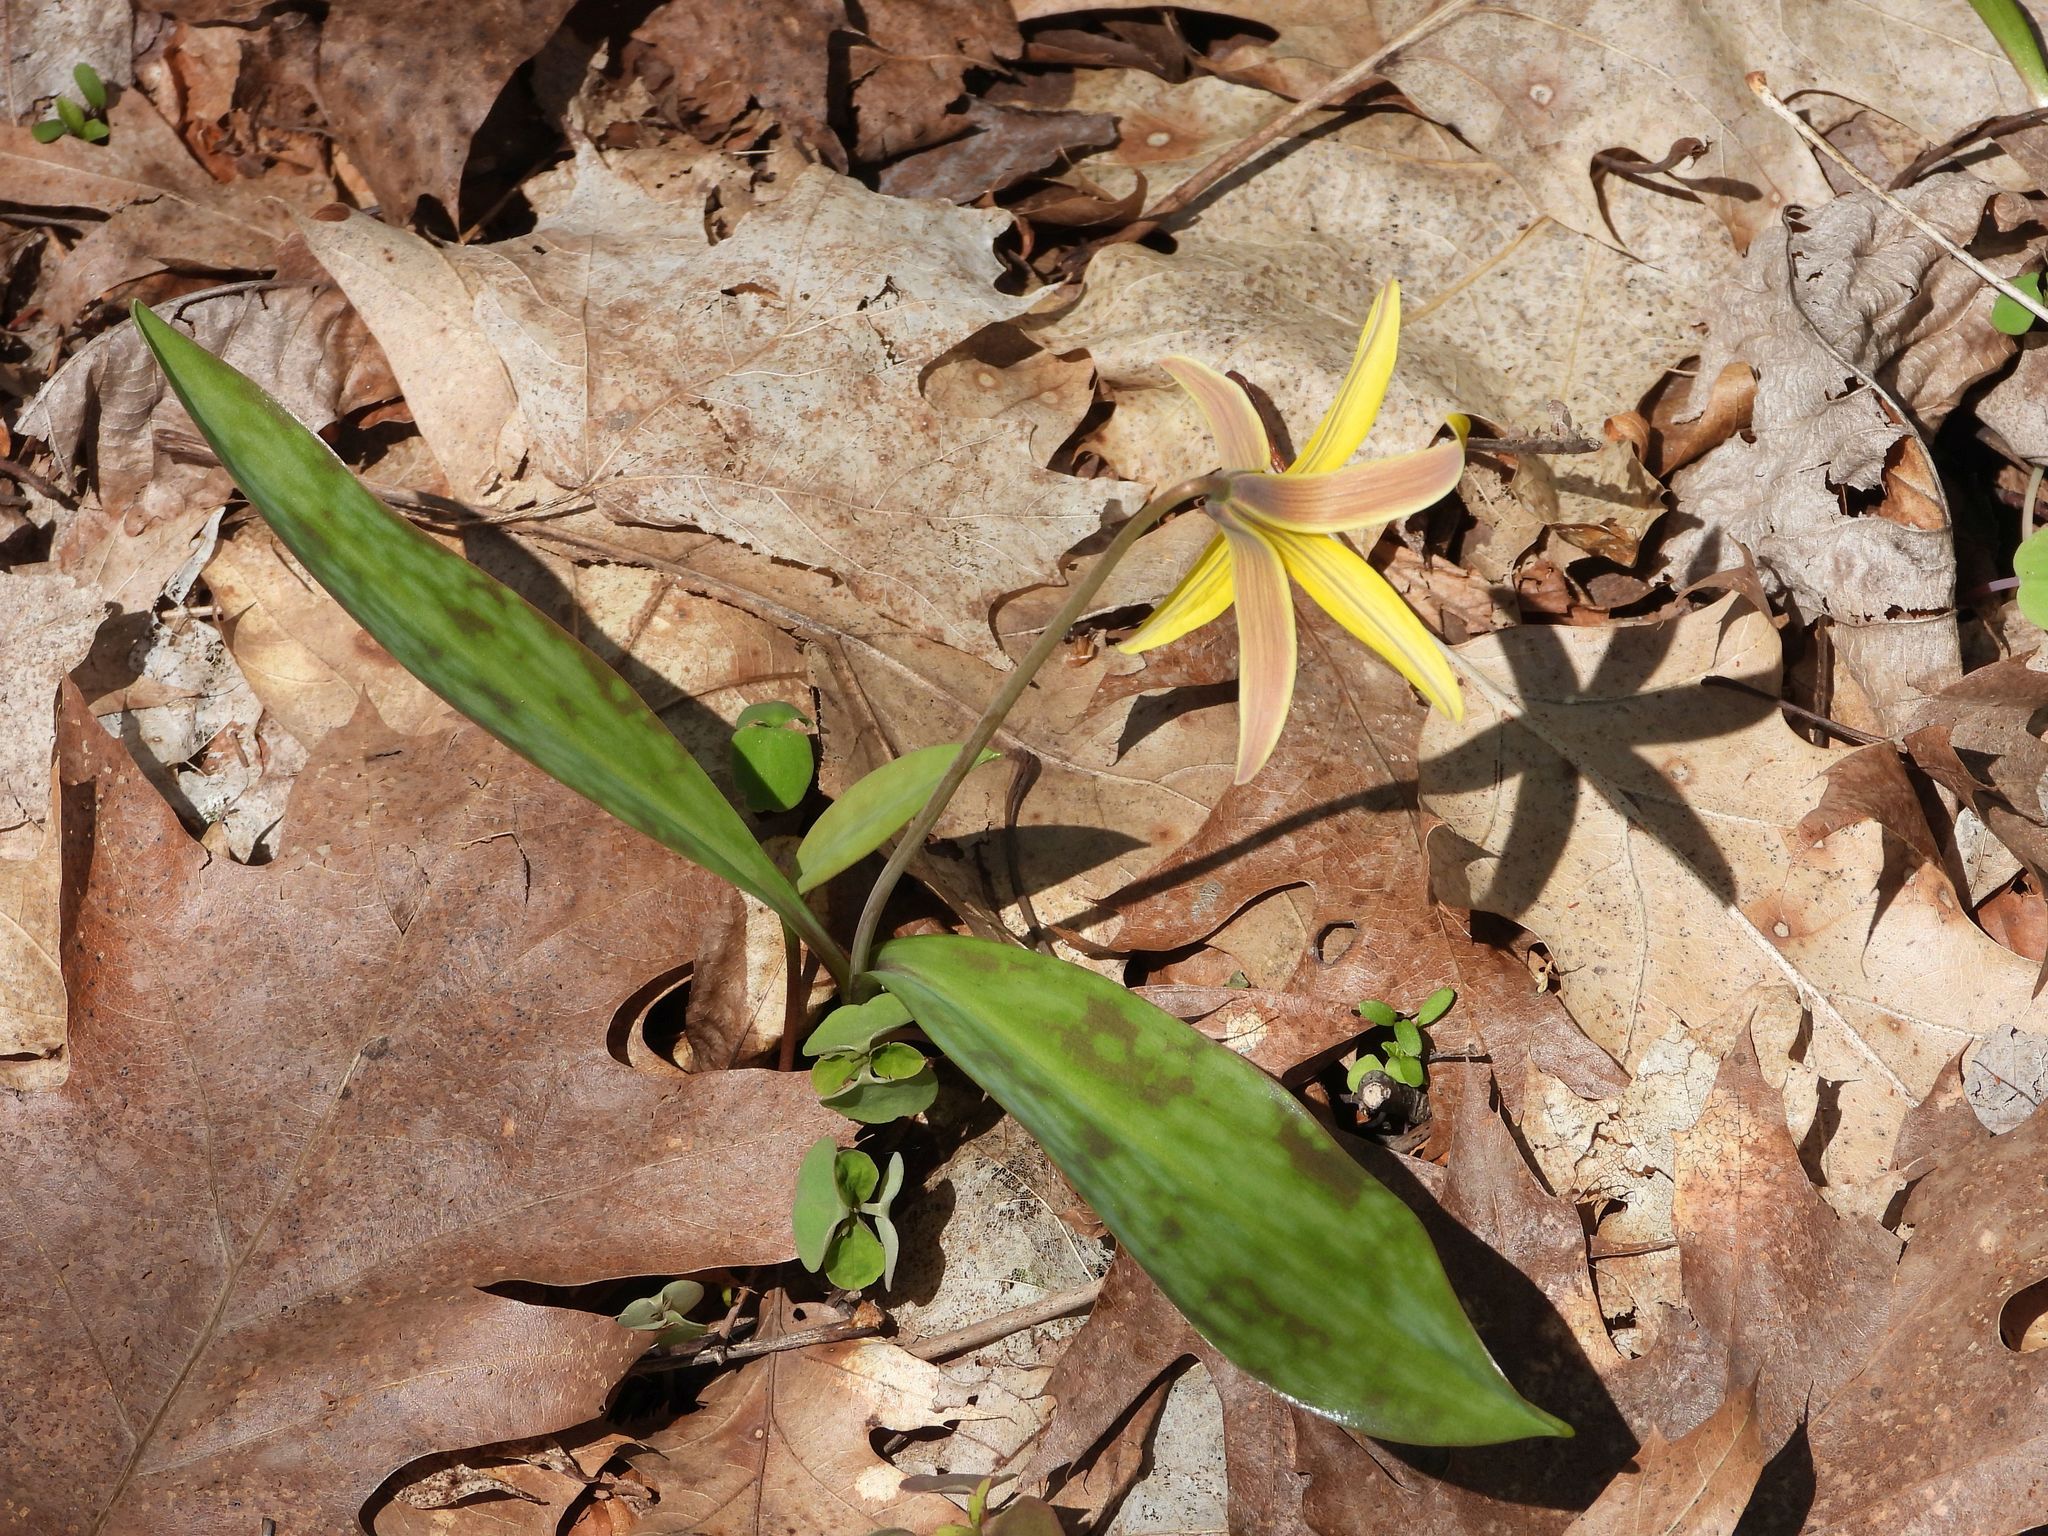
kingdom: Plantae
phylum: Tracheophyta
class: Liliopsida
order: Liliales
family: Liliaceae
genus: Erythronium
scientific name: Erythronium americanum
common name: Yellow adder's-tongue
